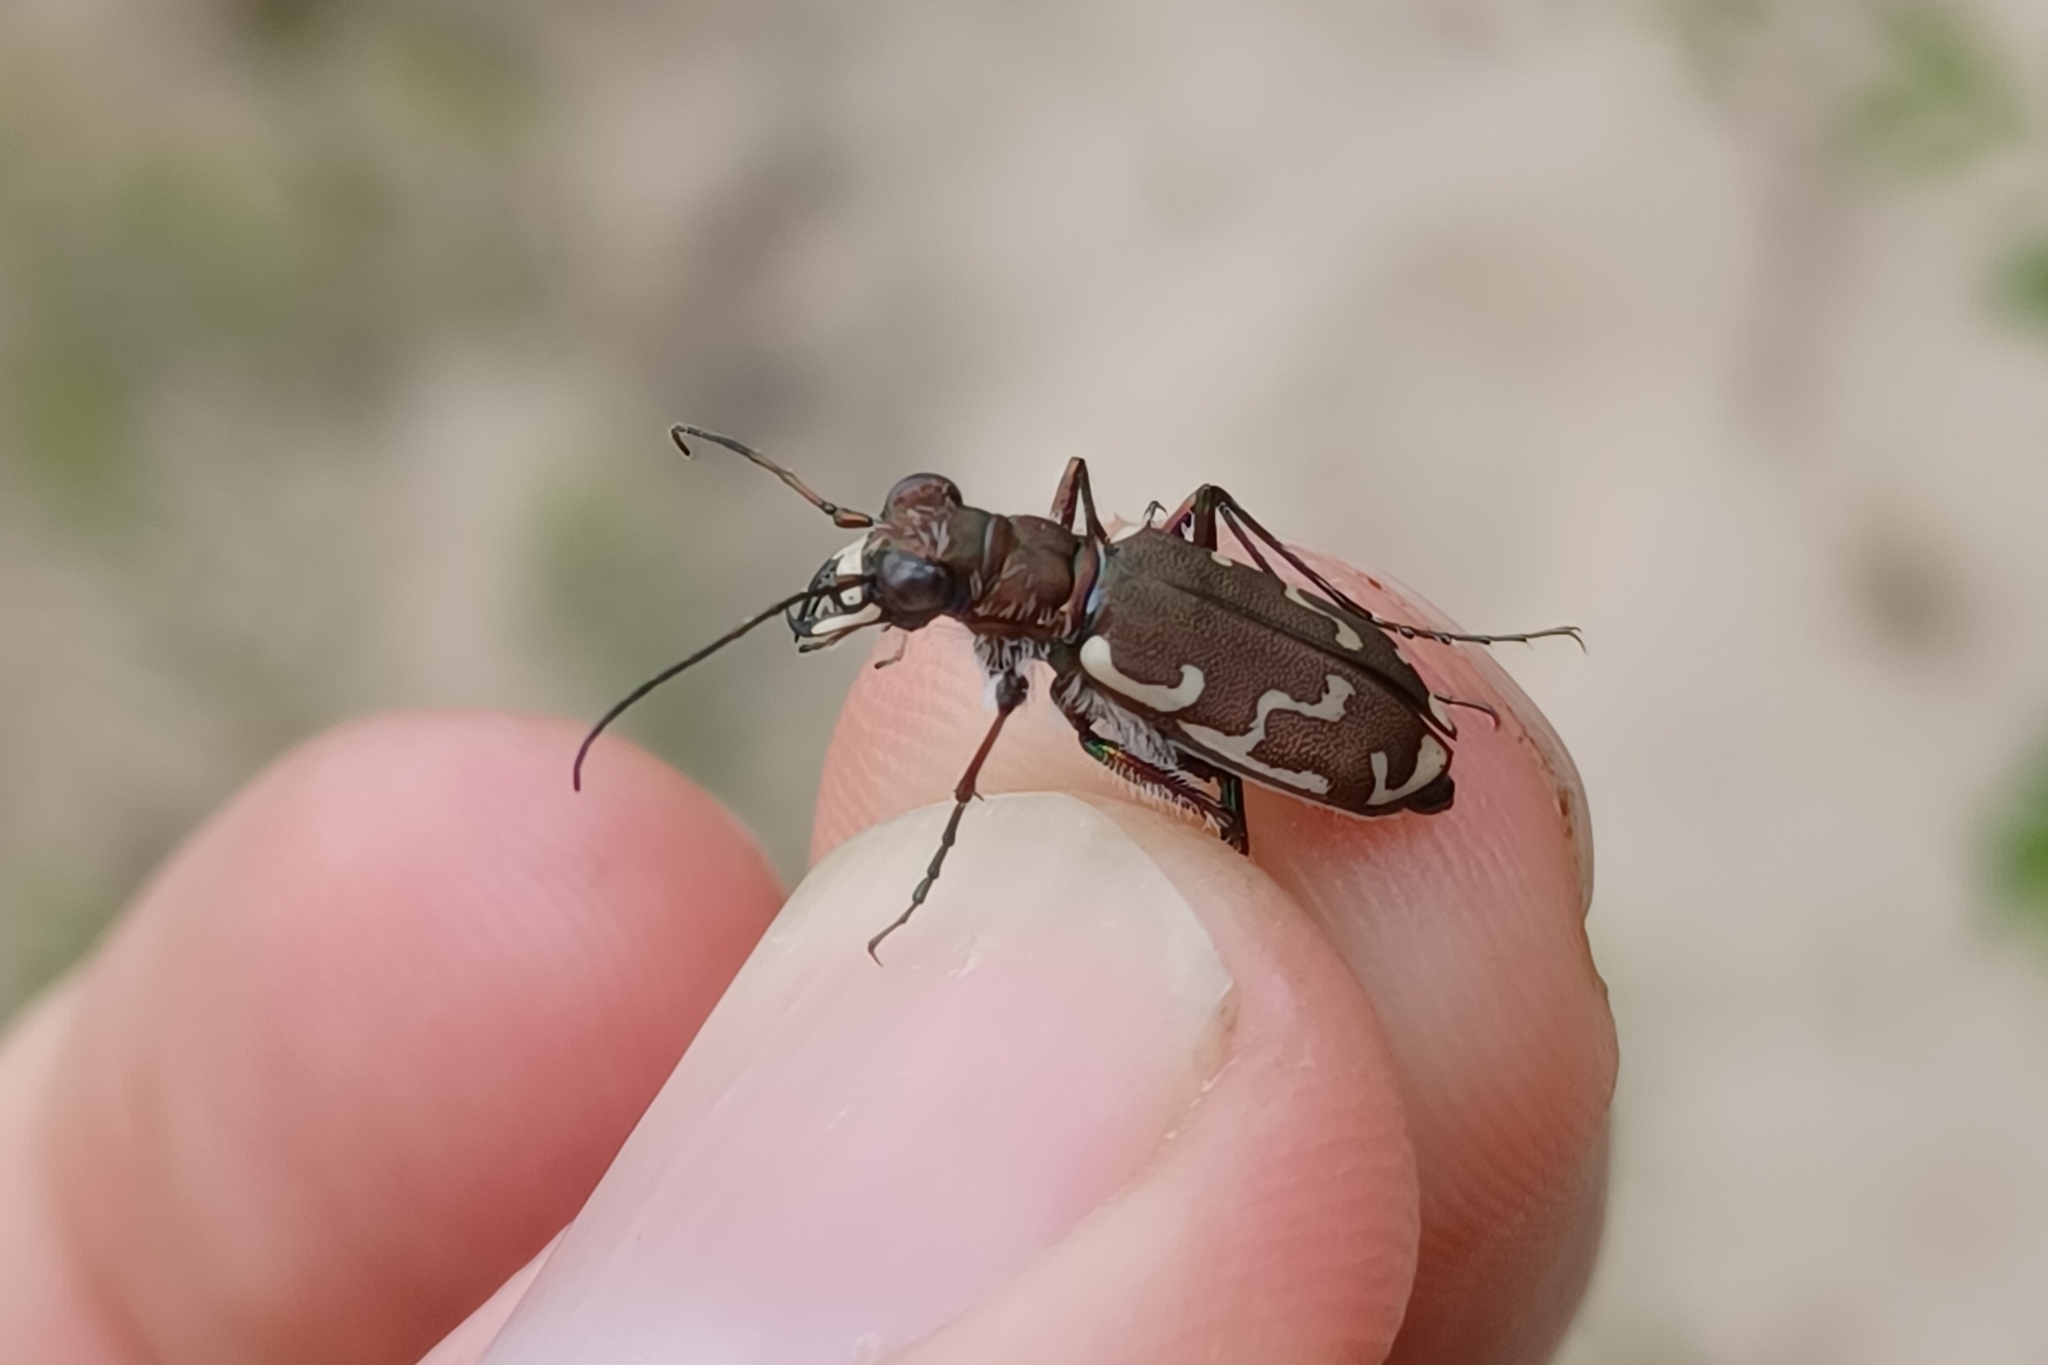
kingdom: Animalia
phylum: Arthropoda
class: Insecta
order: Coleoptera
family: Carabidae
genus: Cicindela
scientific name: Cicindela repanda
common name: Bronzed tiger beetle
